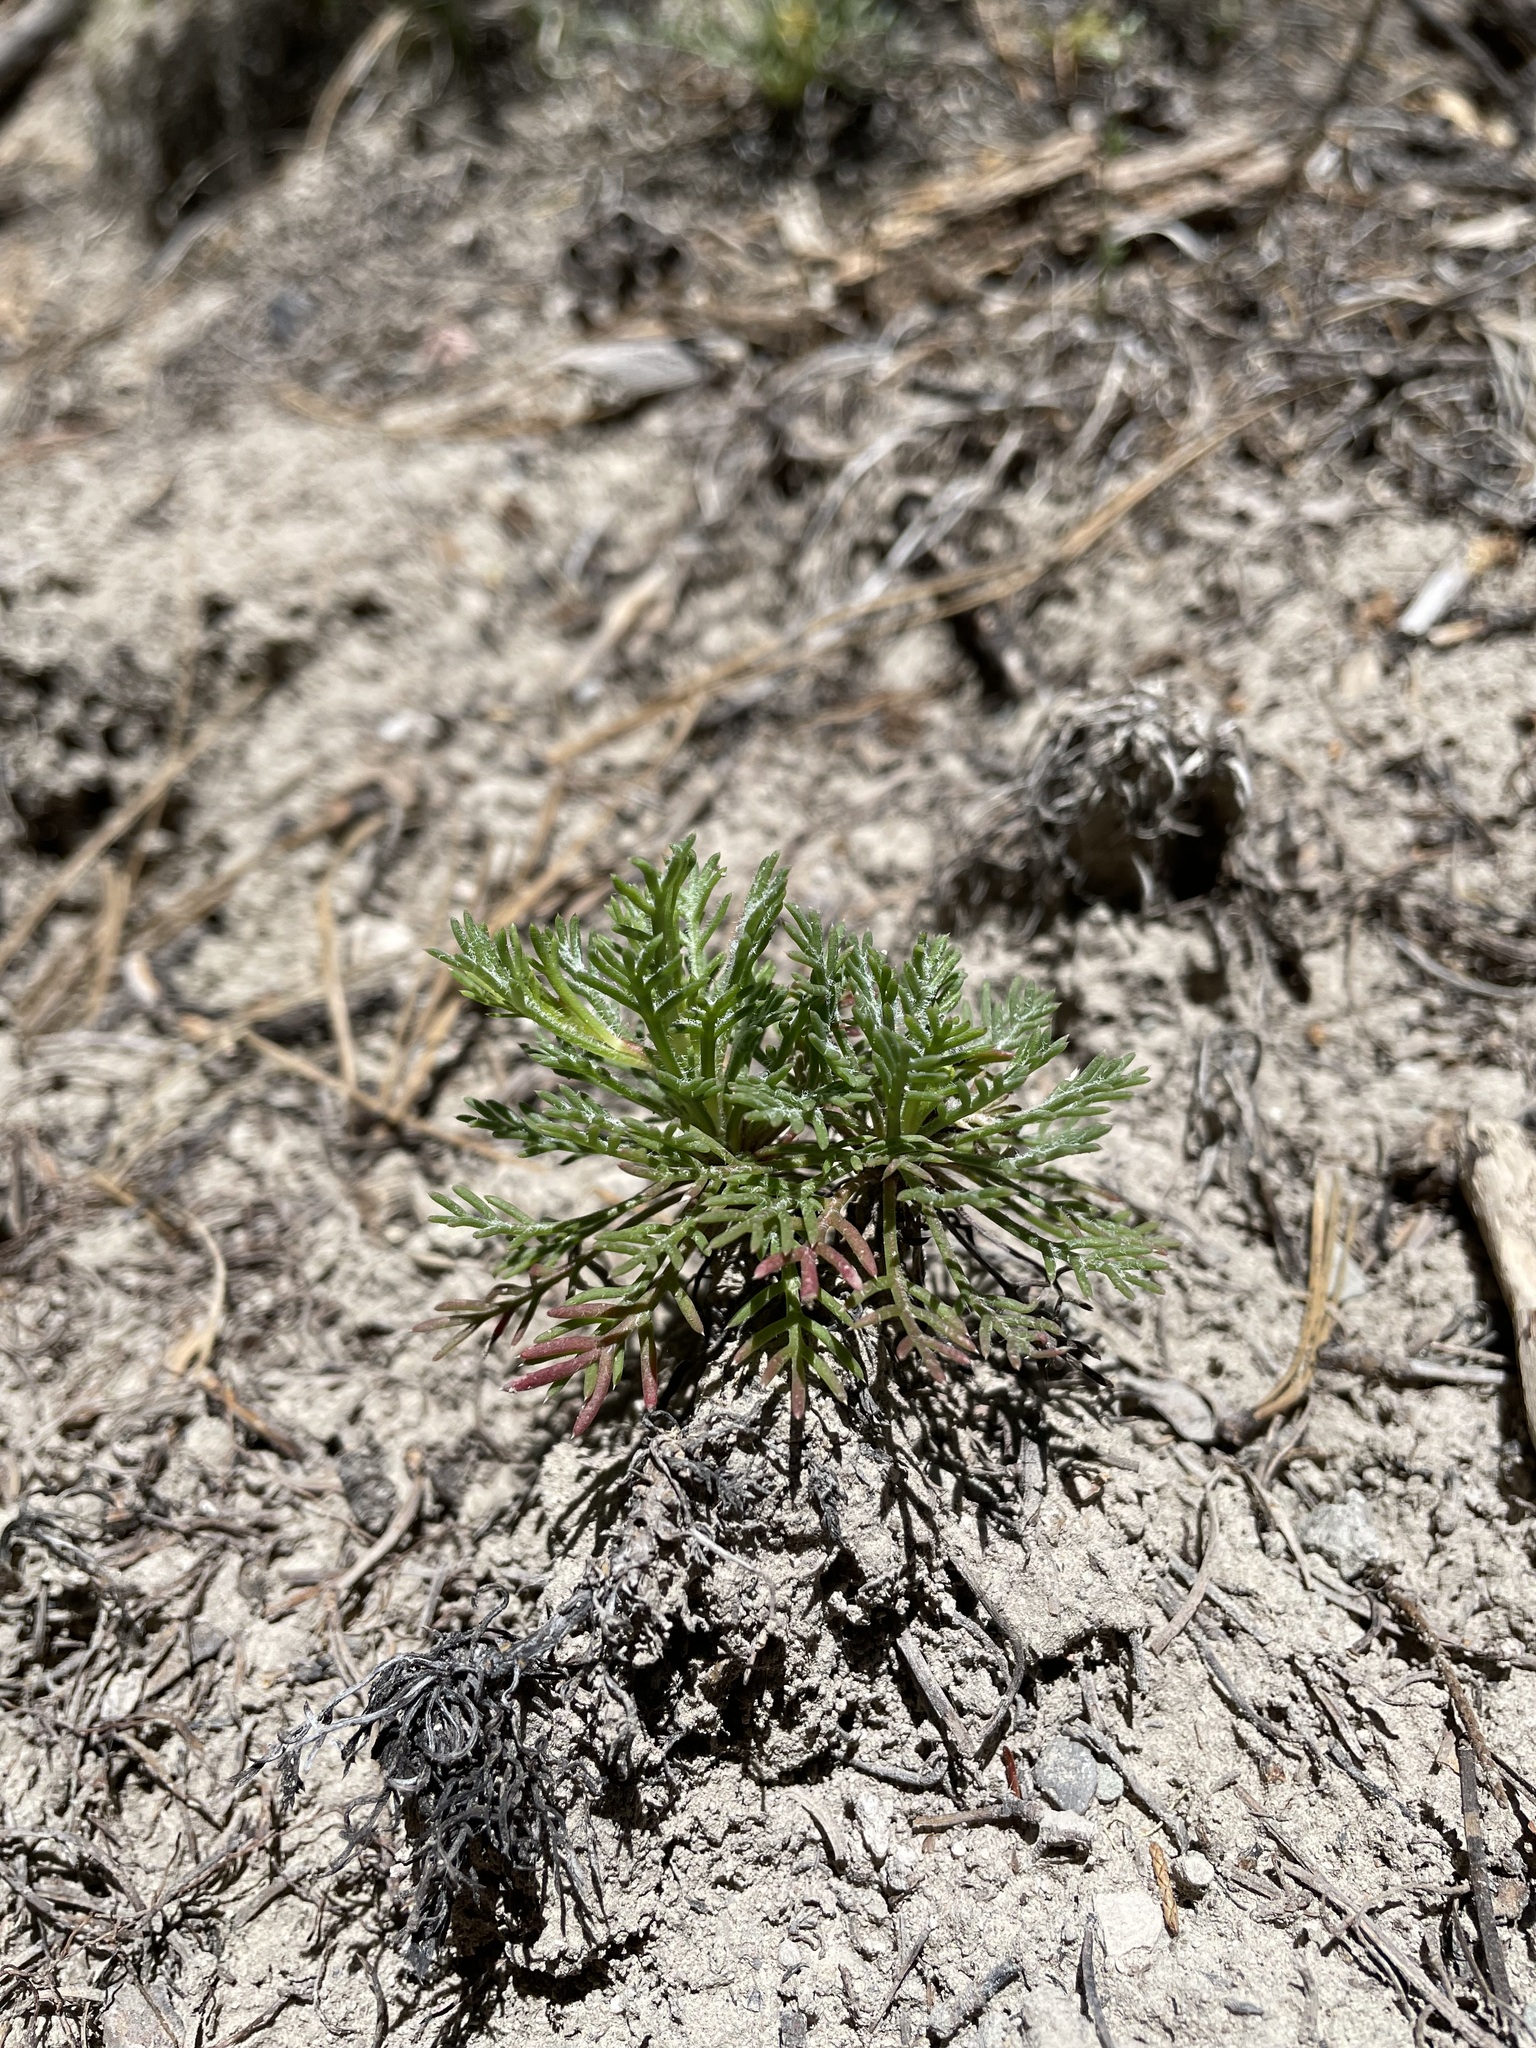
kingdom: Plantae
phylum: Tracheophyta
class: Magnoliopsida
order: Ericales
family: Polemoniaceae
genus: Ipomopsis
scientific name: Ipomopsis aggregata
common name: Scarlet gilia
